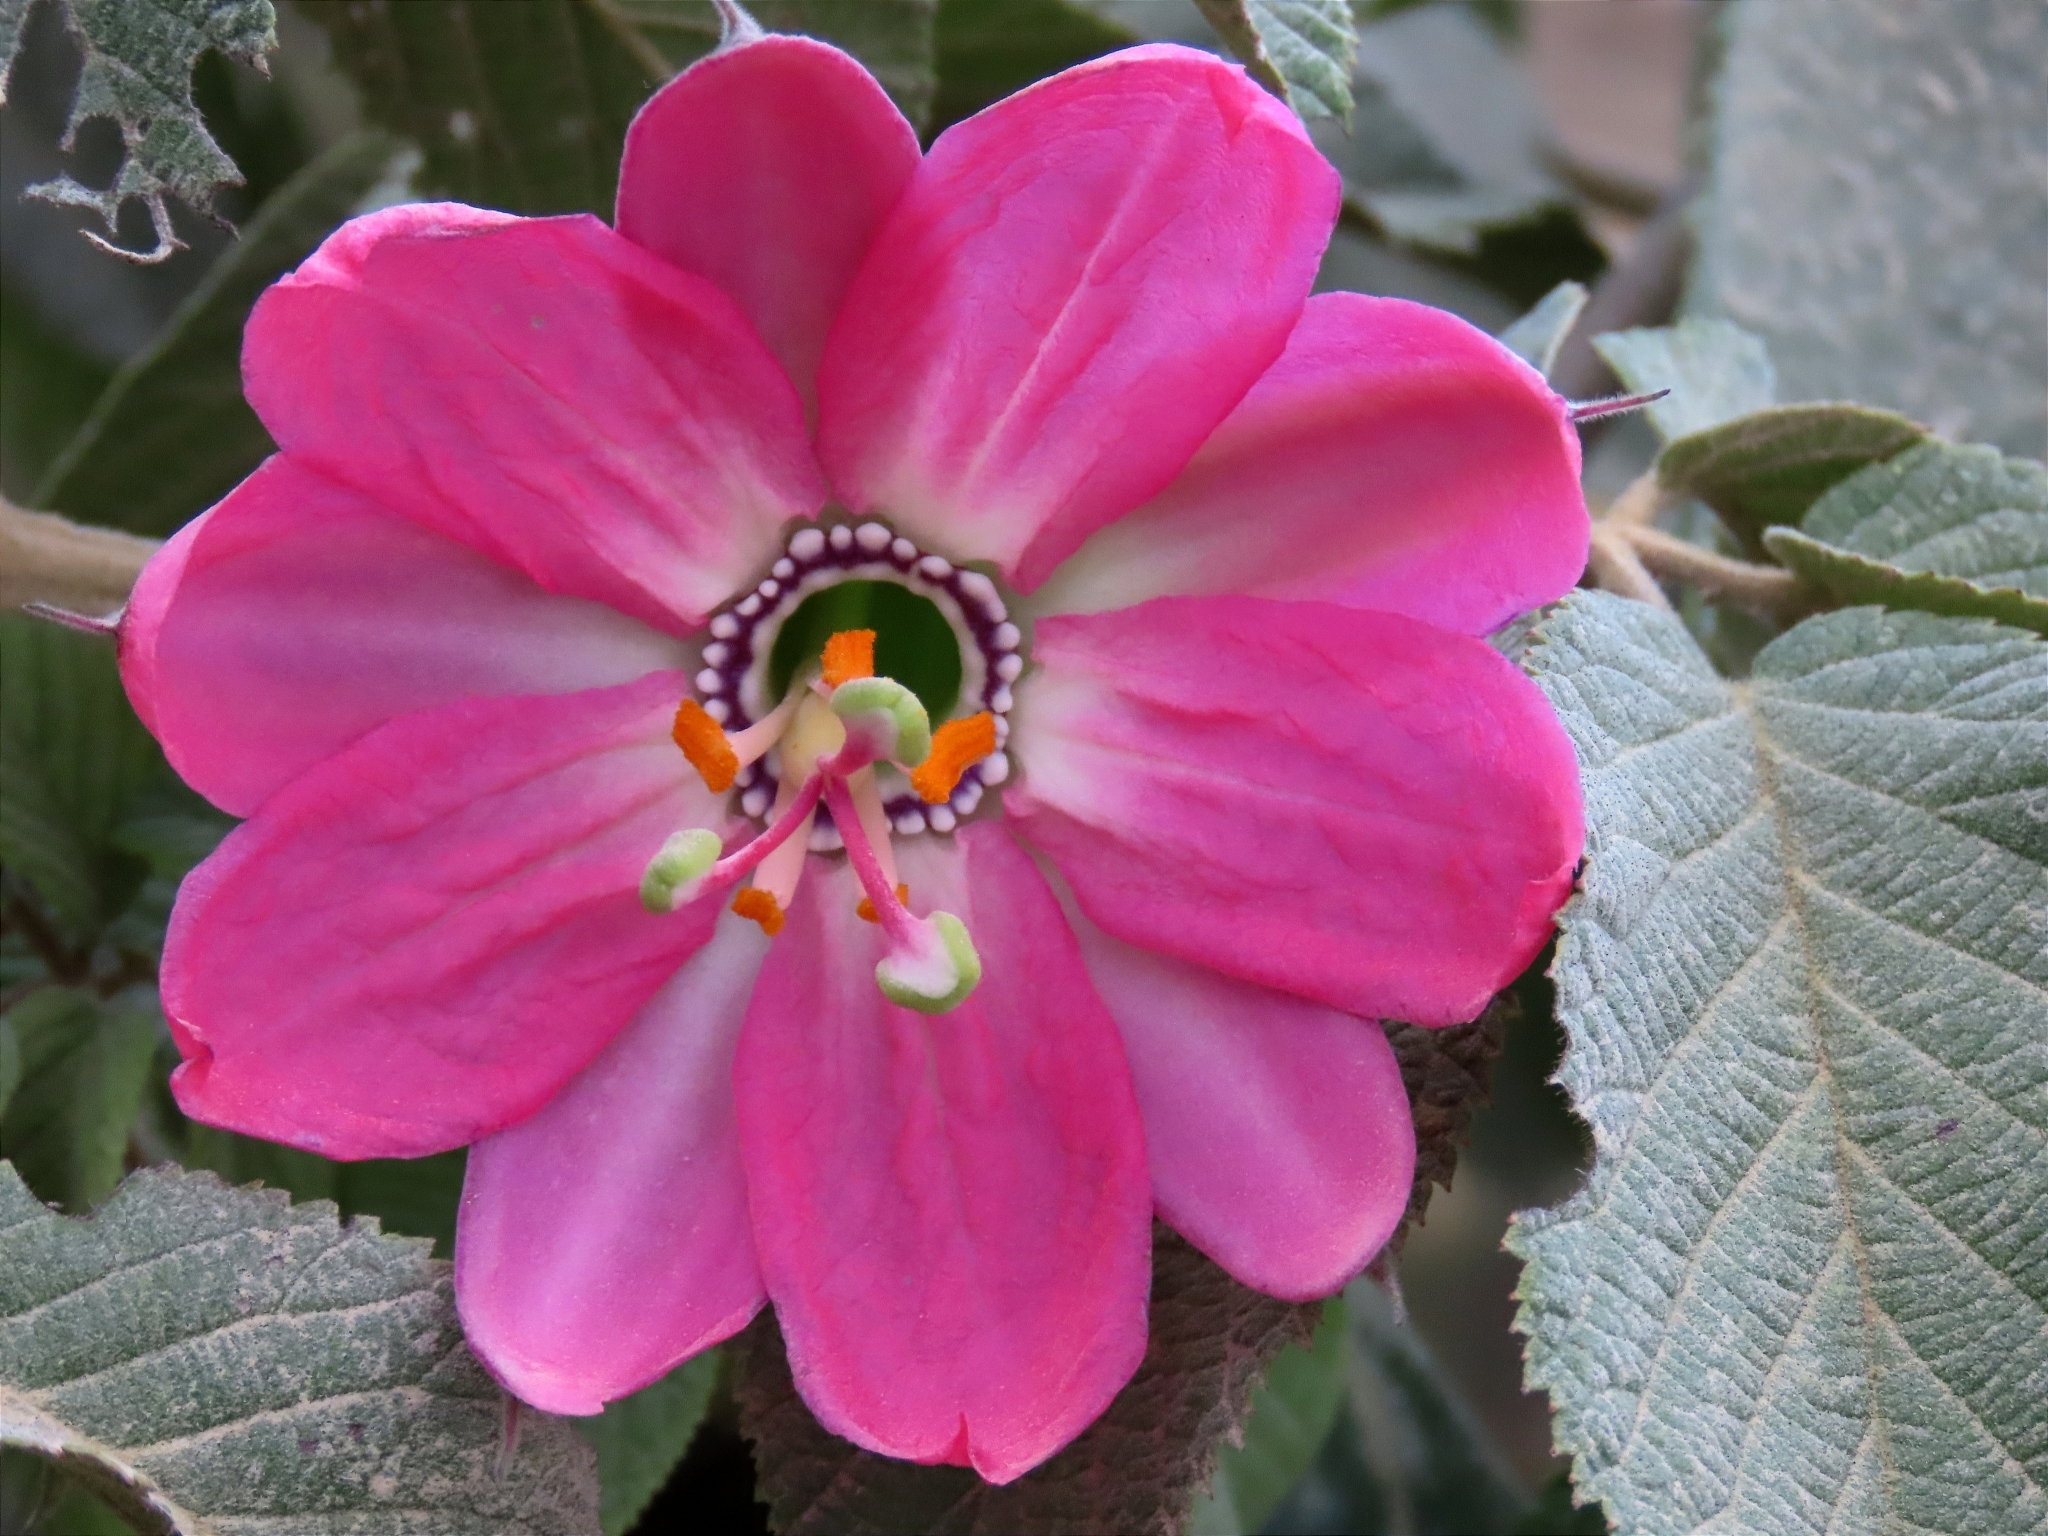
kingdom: Plantae
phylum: Tracheophyta
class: Magnoliopsida
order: Malpighiales
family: Passifloraceae
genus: Passiflora
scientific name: Passiflora tripartita
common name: Banana poka
